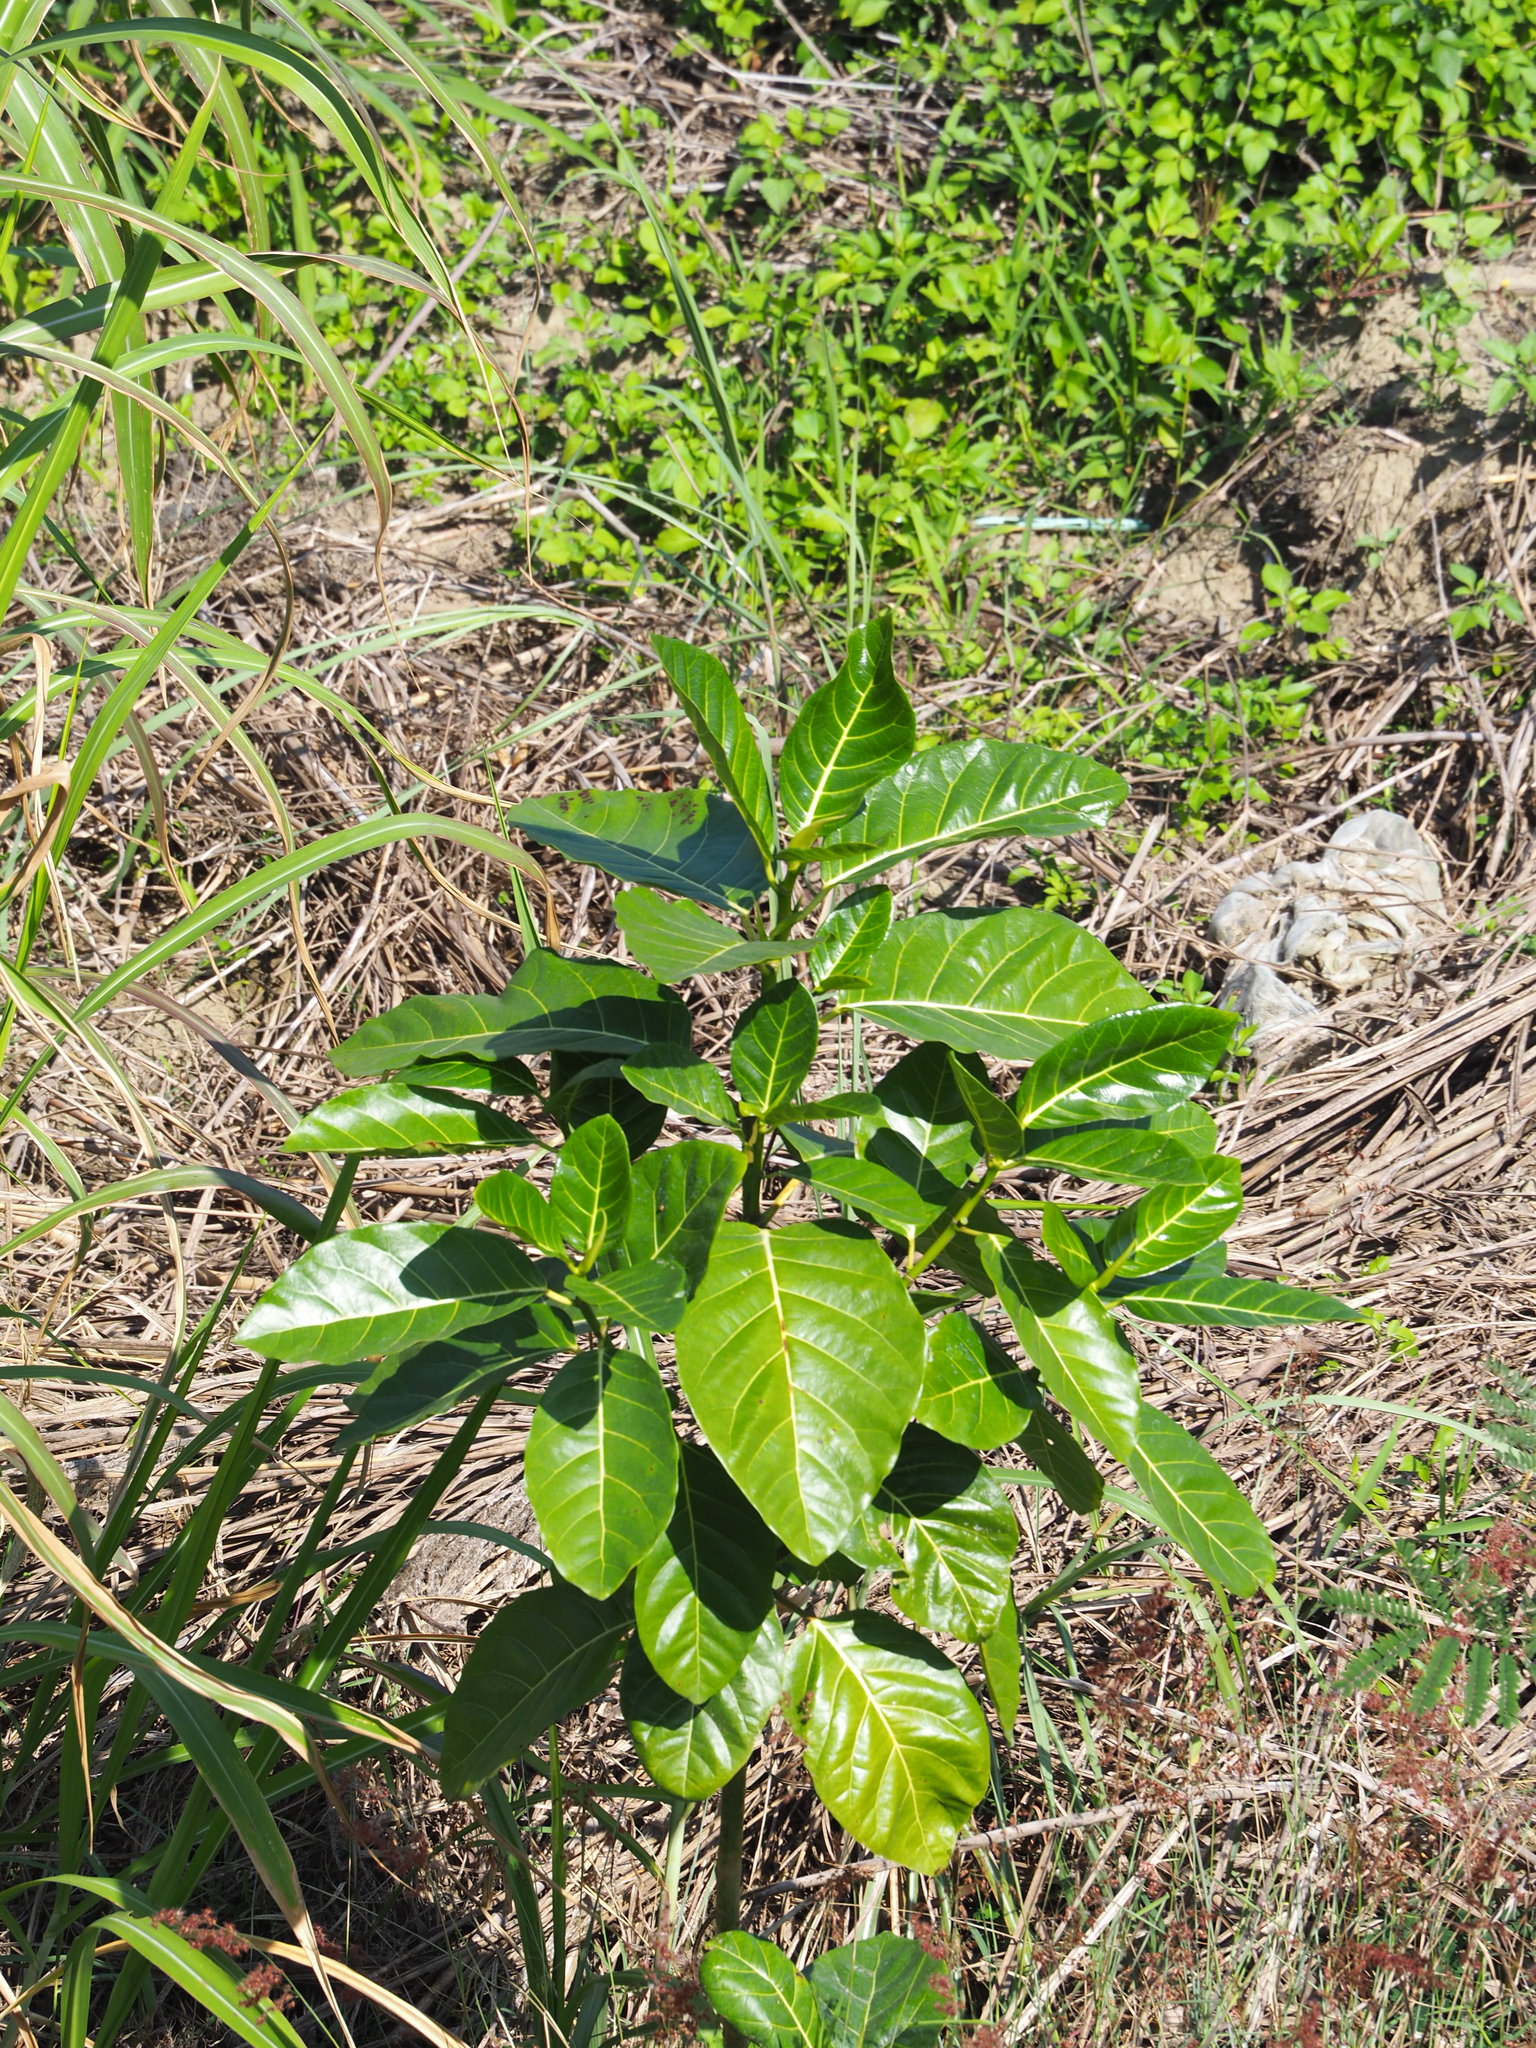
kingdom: Plantae
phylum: Tracheophyta
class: Magnoliopsida
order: Rosales
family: Moraceae
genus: Ficus
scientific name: Ficus septica
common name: Septic fig
